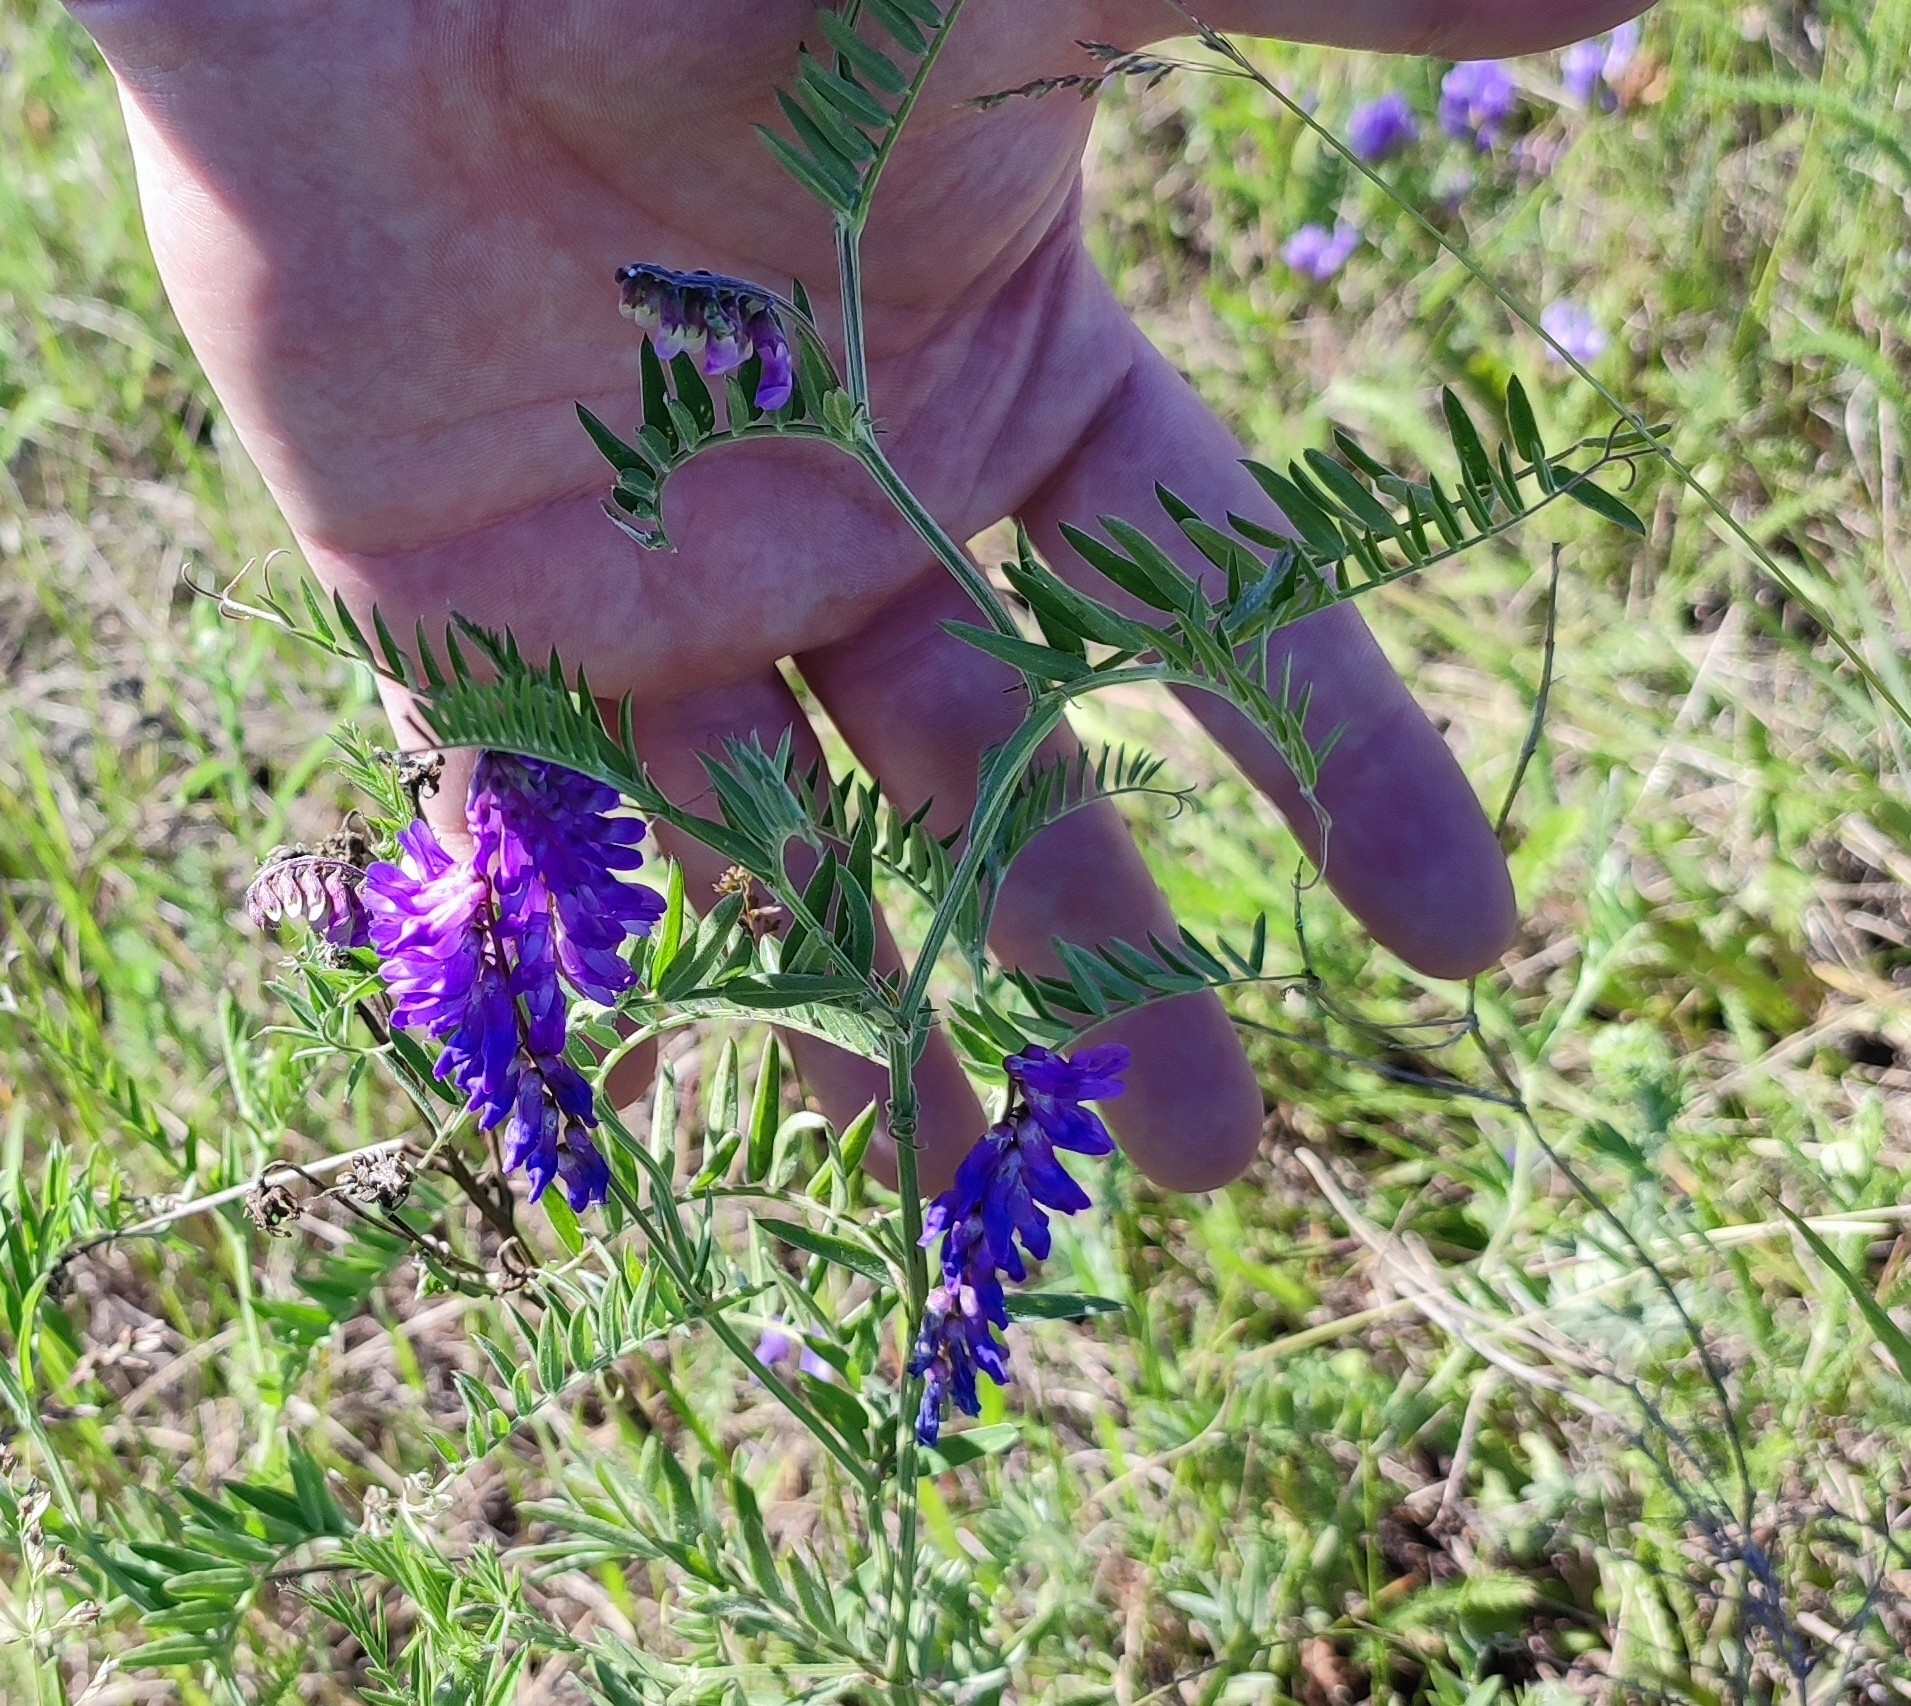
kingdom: Plantae
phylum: Tracheophyta
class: Magnoliopsida
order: Fabales
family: Fabaceae
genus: Vicia
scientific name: Vicia cracca
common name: Bird vetch
